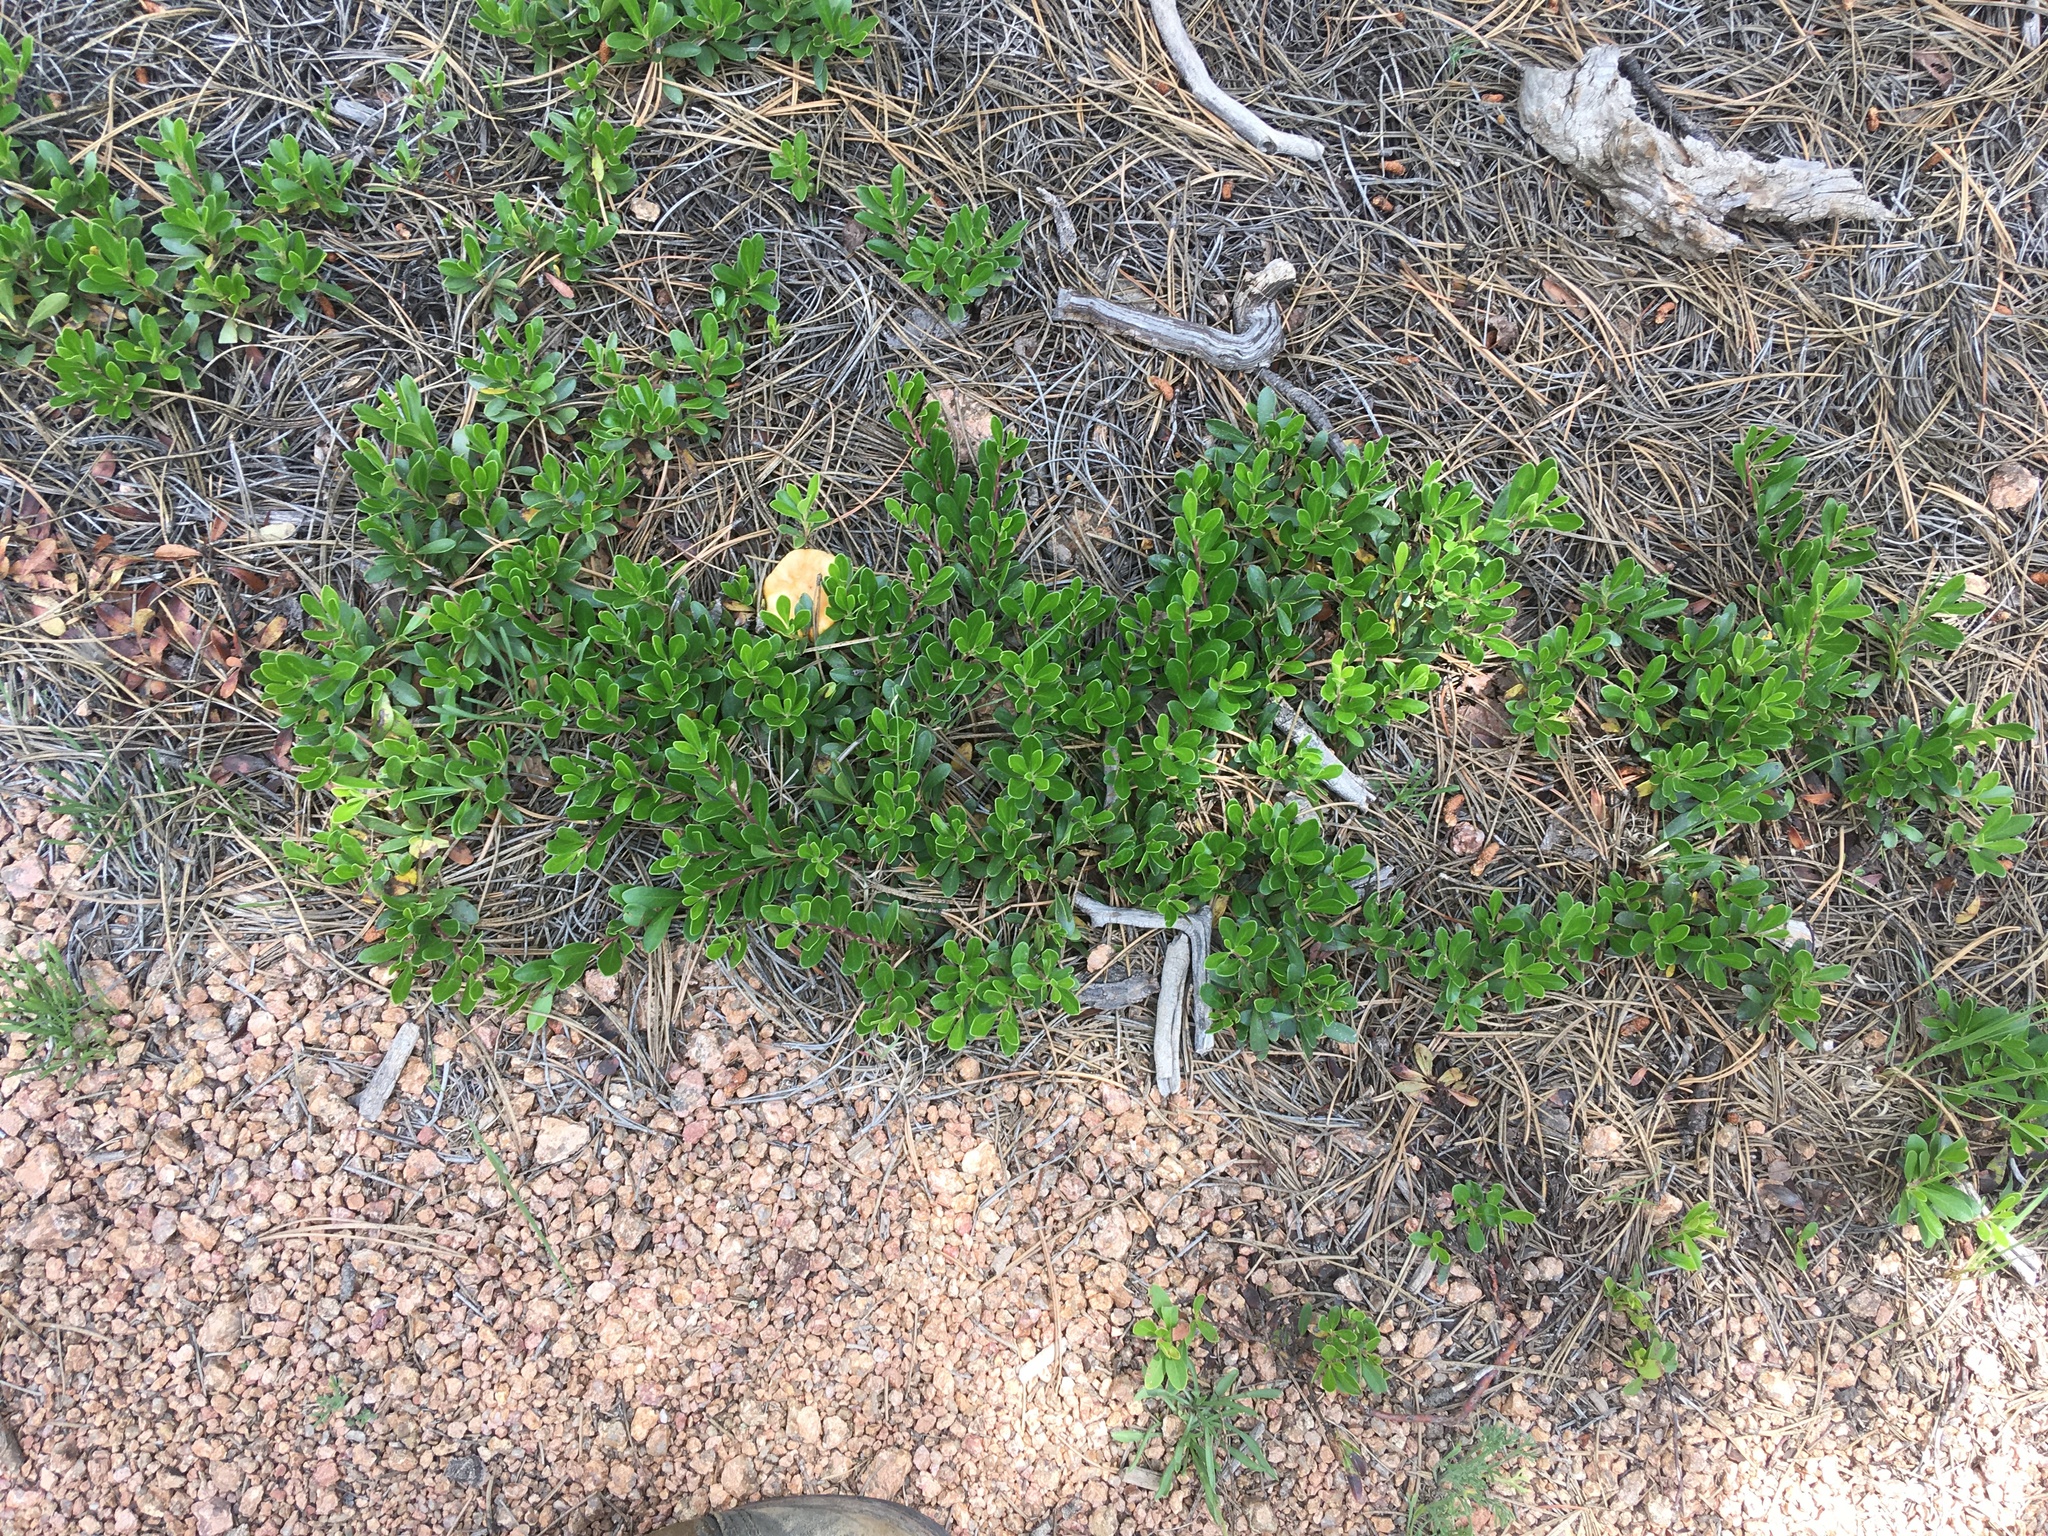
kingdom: Plantae
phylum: Tracheophyta
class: Magnoliopsida
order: Ericales
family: Ericaceae
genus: Arctostaphylos
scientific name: Arctostaphylos uva-ursi
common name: Bearberry
